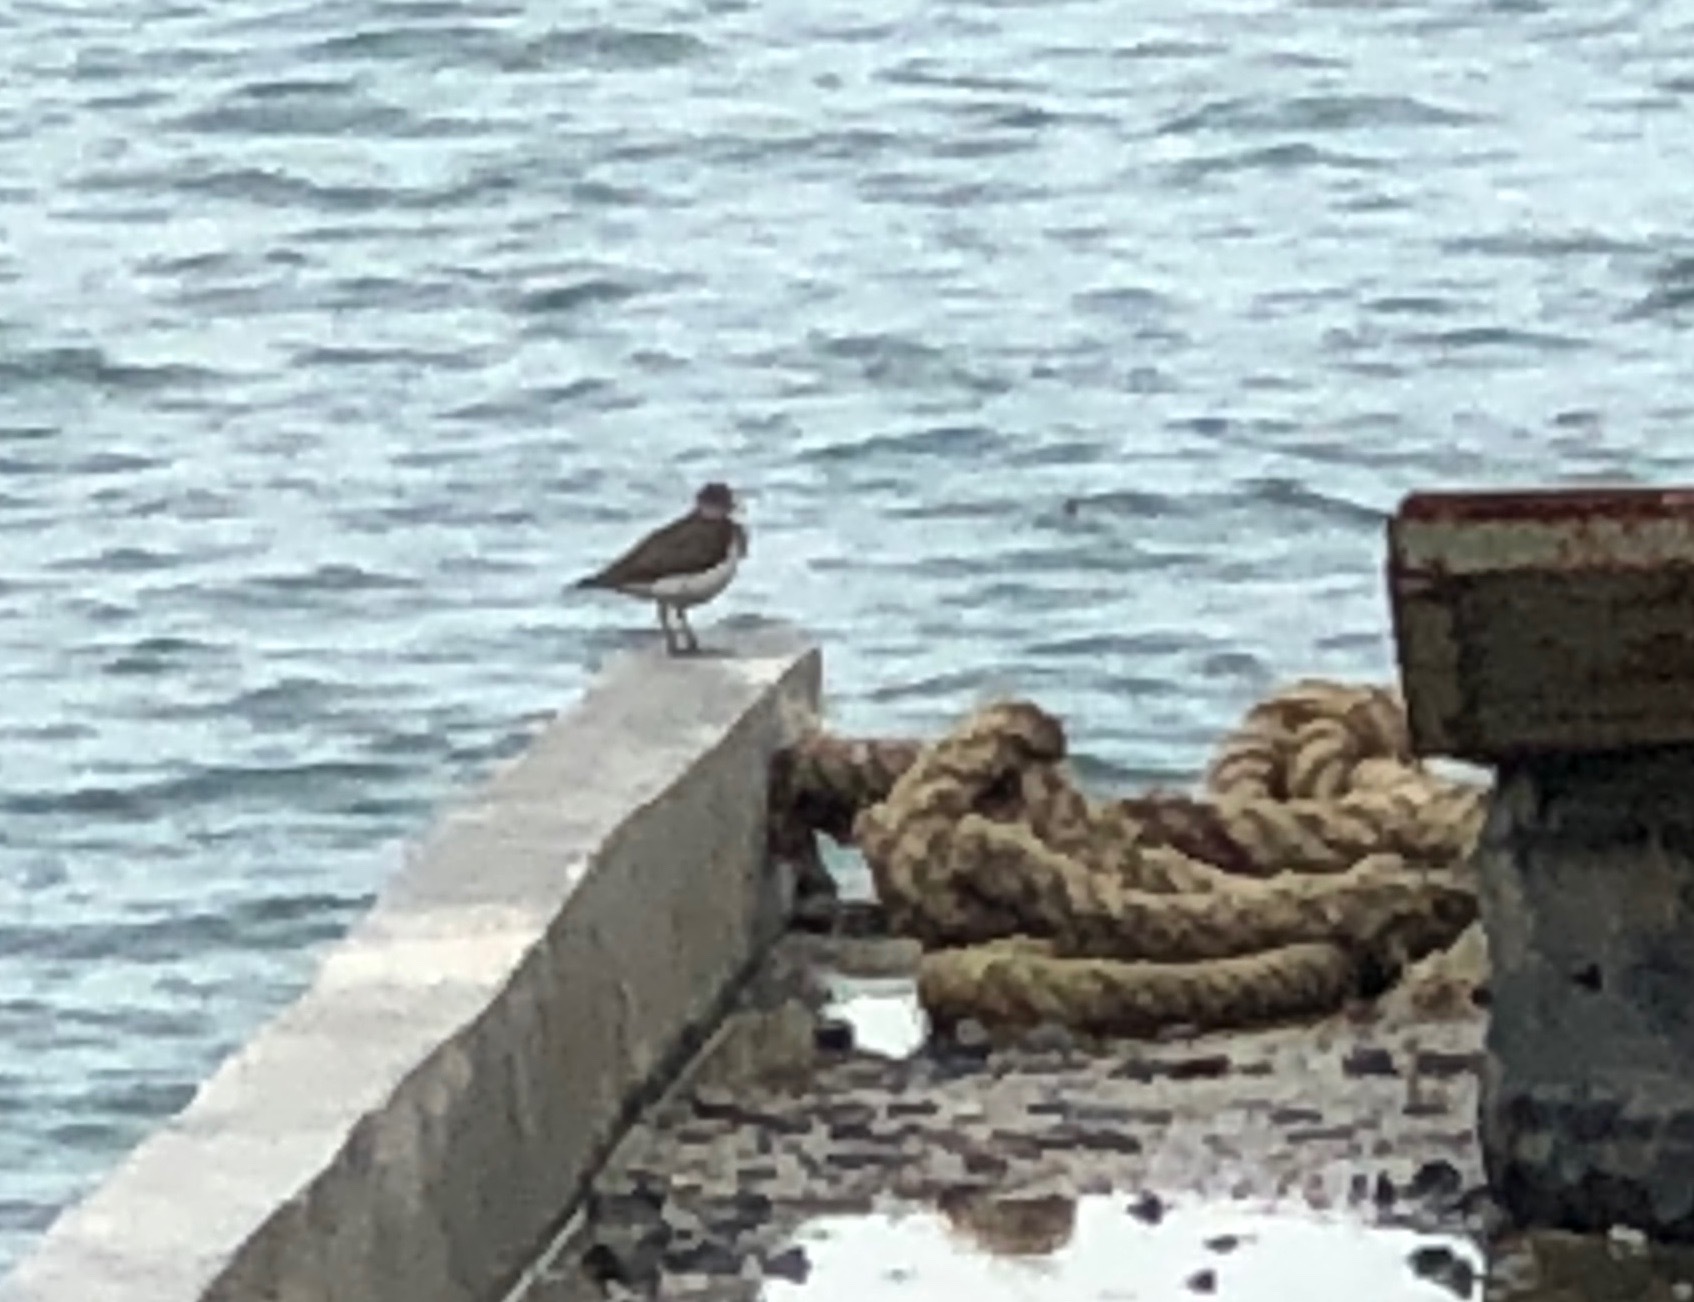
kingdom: Animalia
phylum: Chordata
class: Aves
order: Charadriiformes
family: Scolopacidae
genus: Actitis
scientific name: Actitis hypoleucos
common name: Common sandpiper
